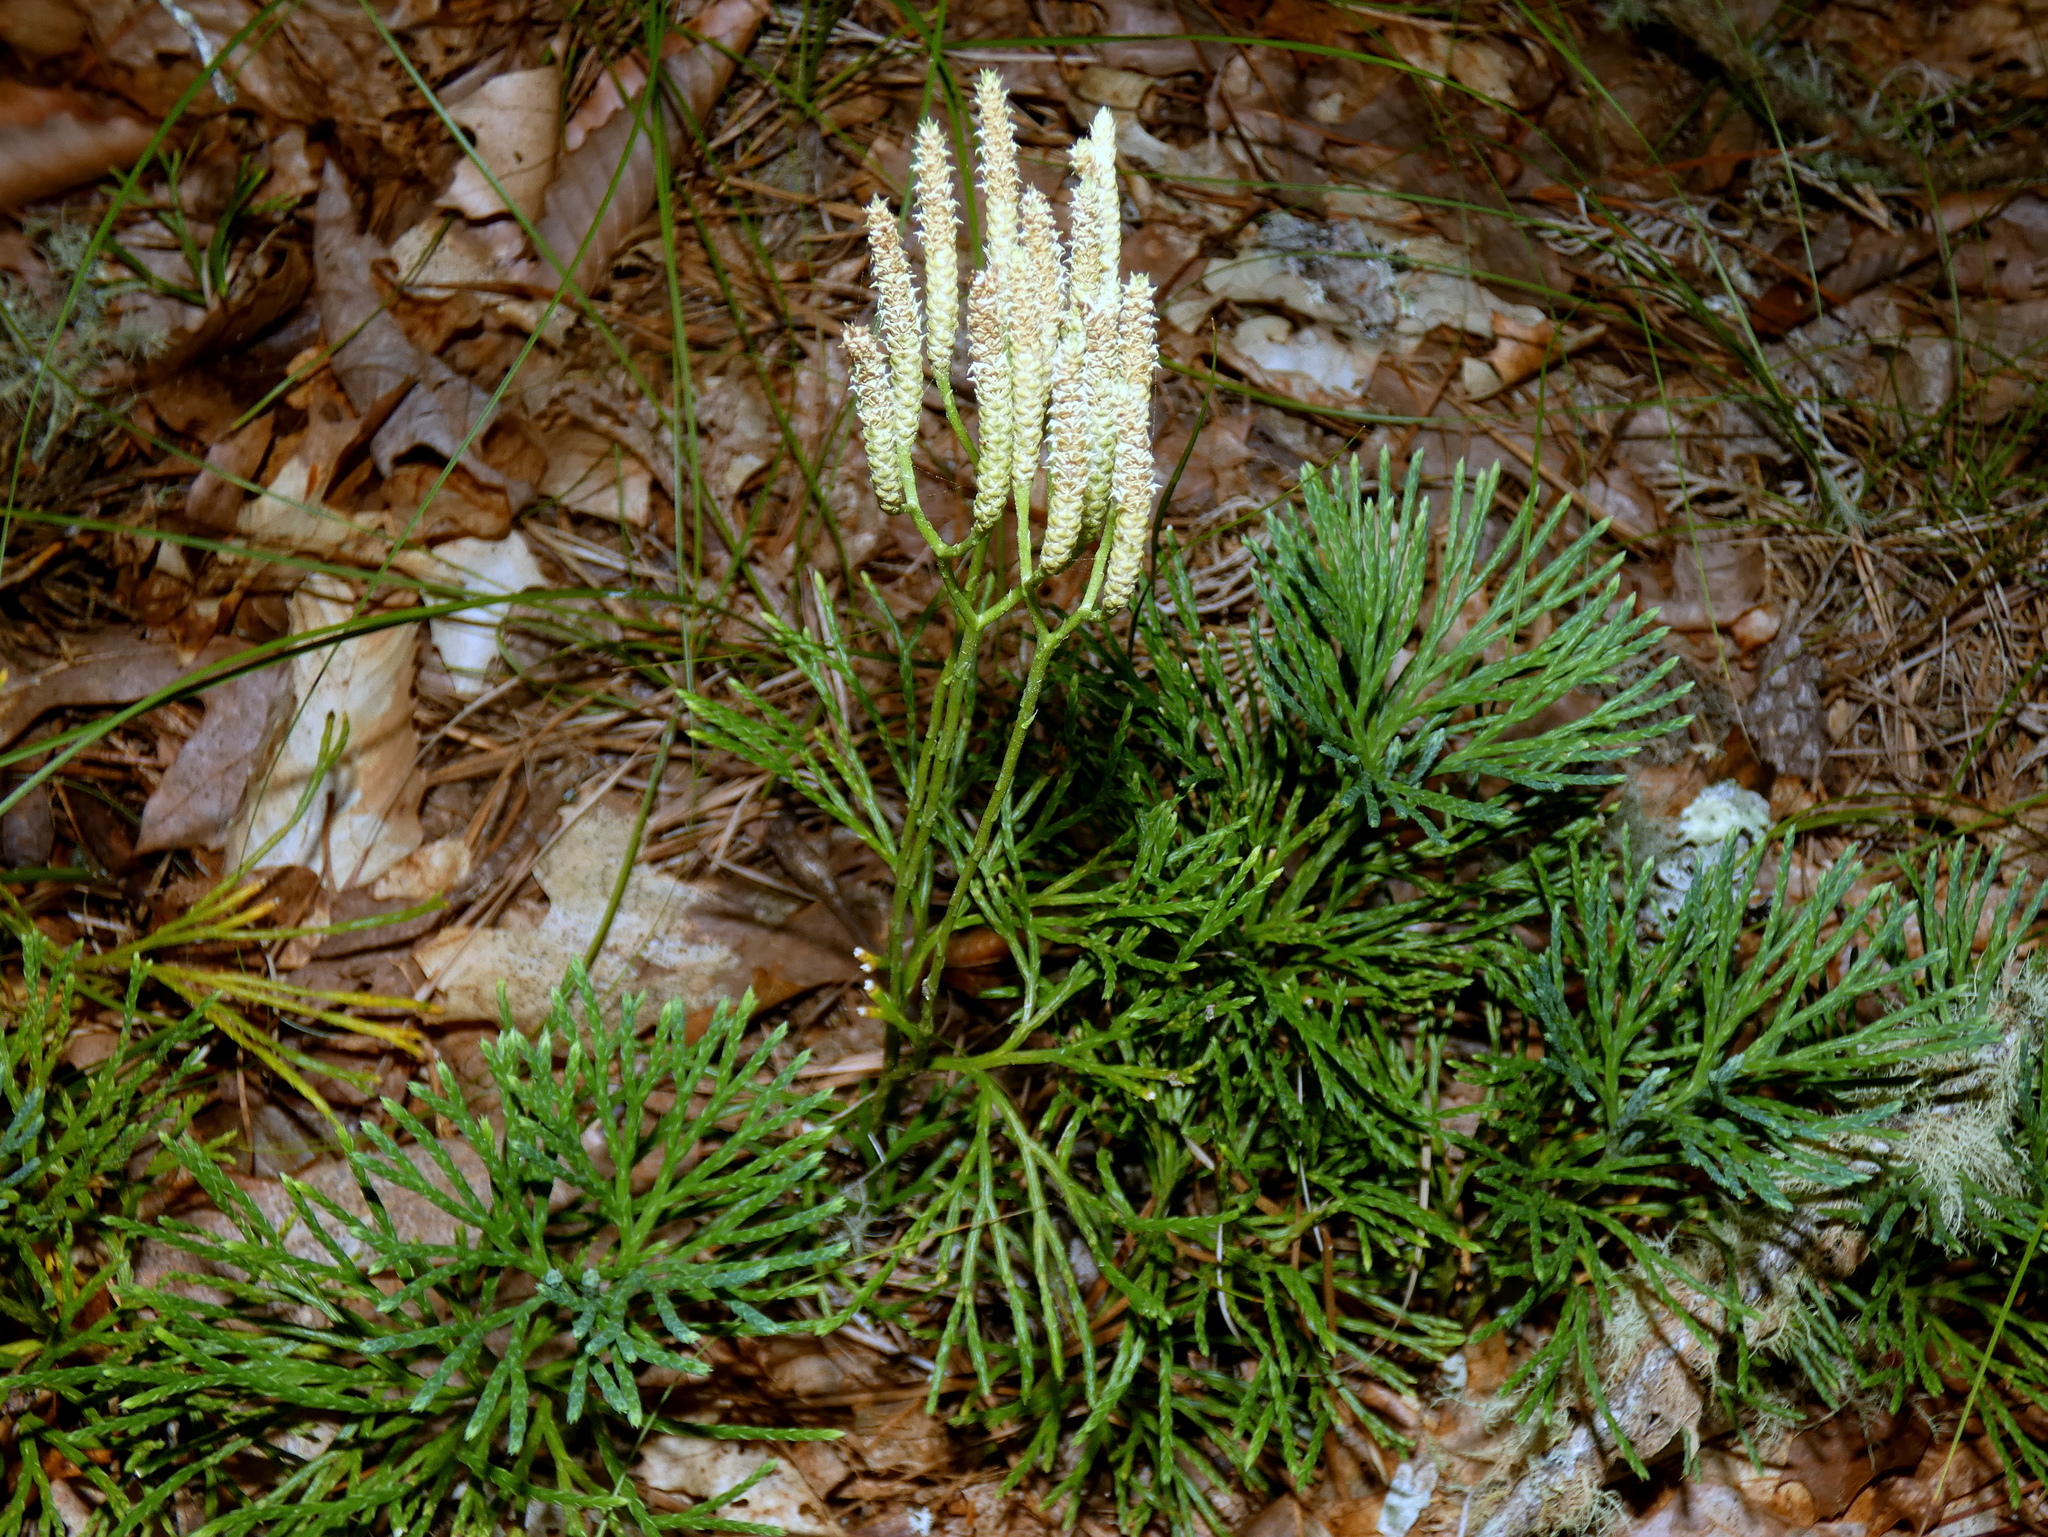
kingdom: Plantae
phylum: Tracheophyta
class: Lycopodiopsida
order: Lycopodiales
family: Lycopodiaceae
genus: Diphasiastrum
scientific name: Diphasiastrum digitatum
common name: Southern running-pine
